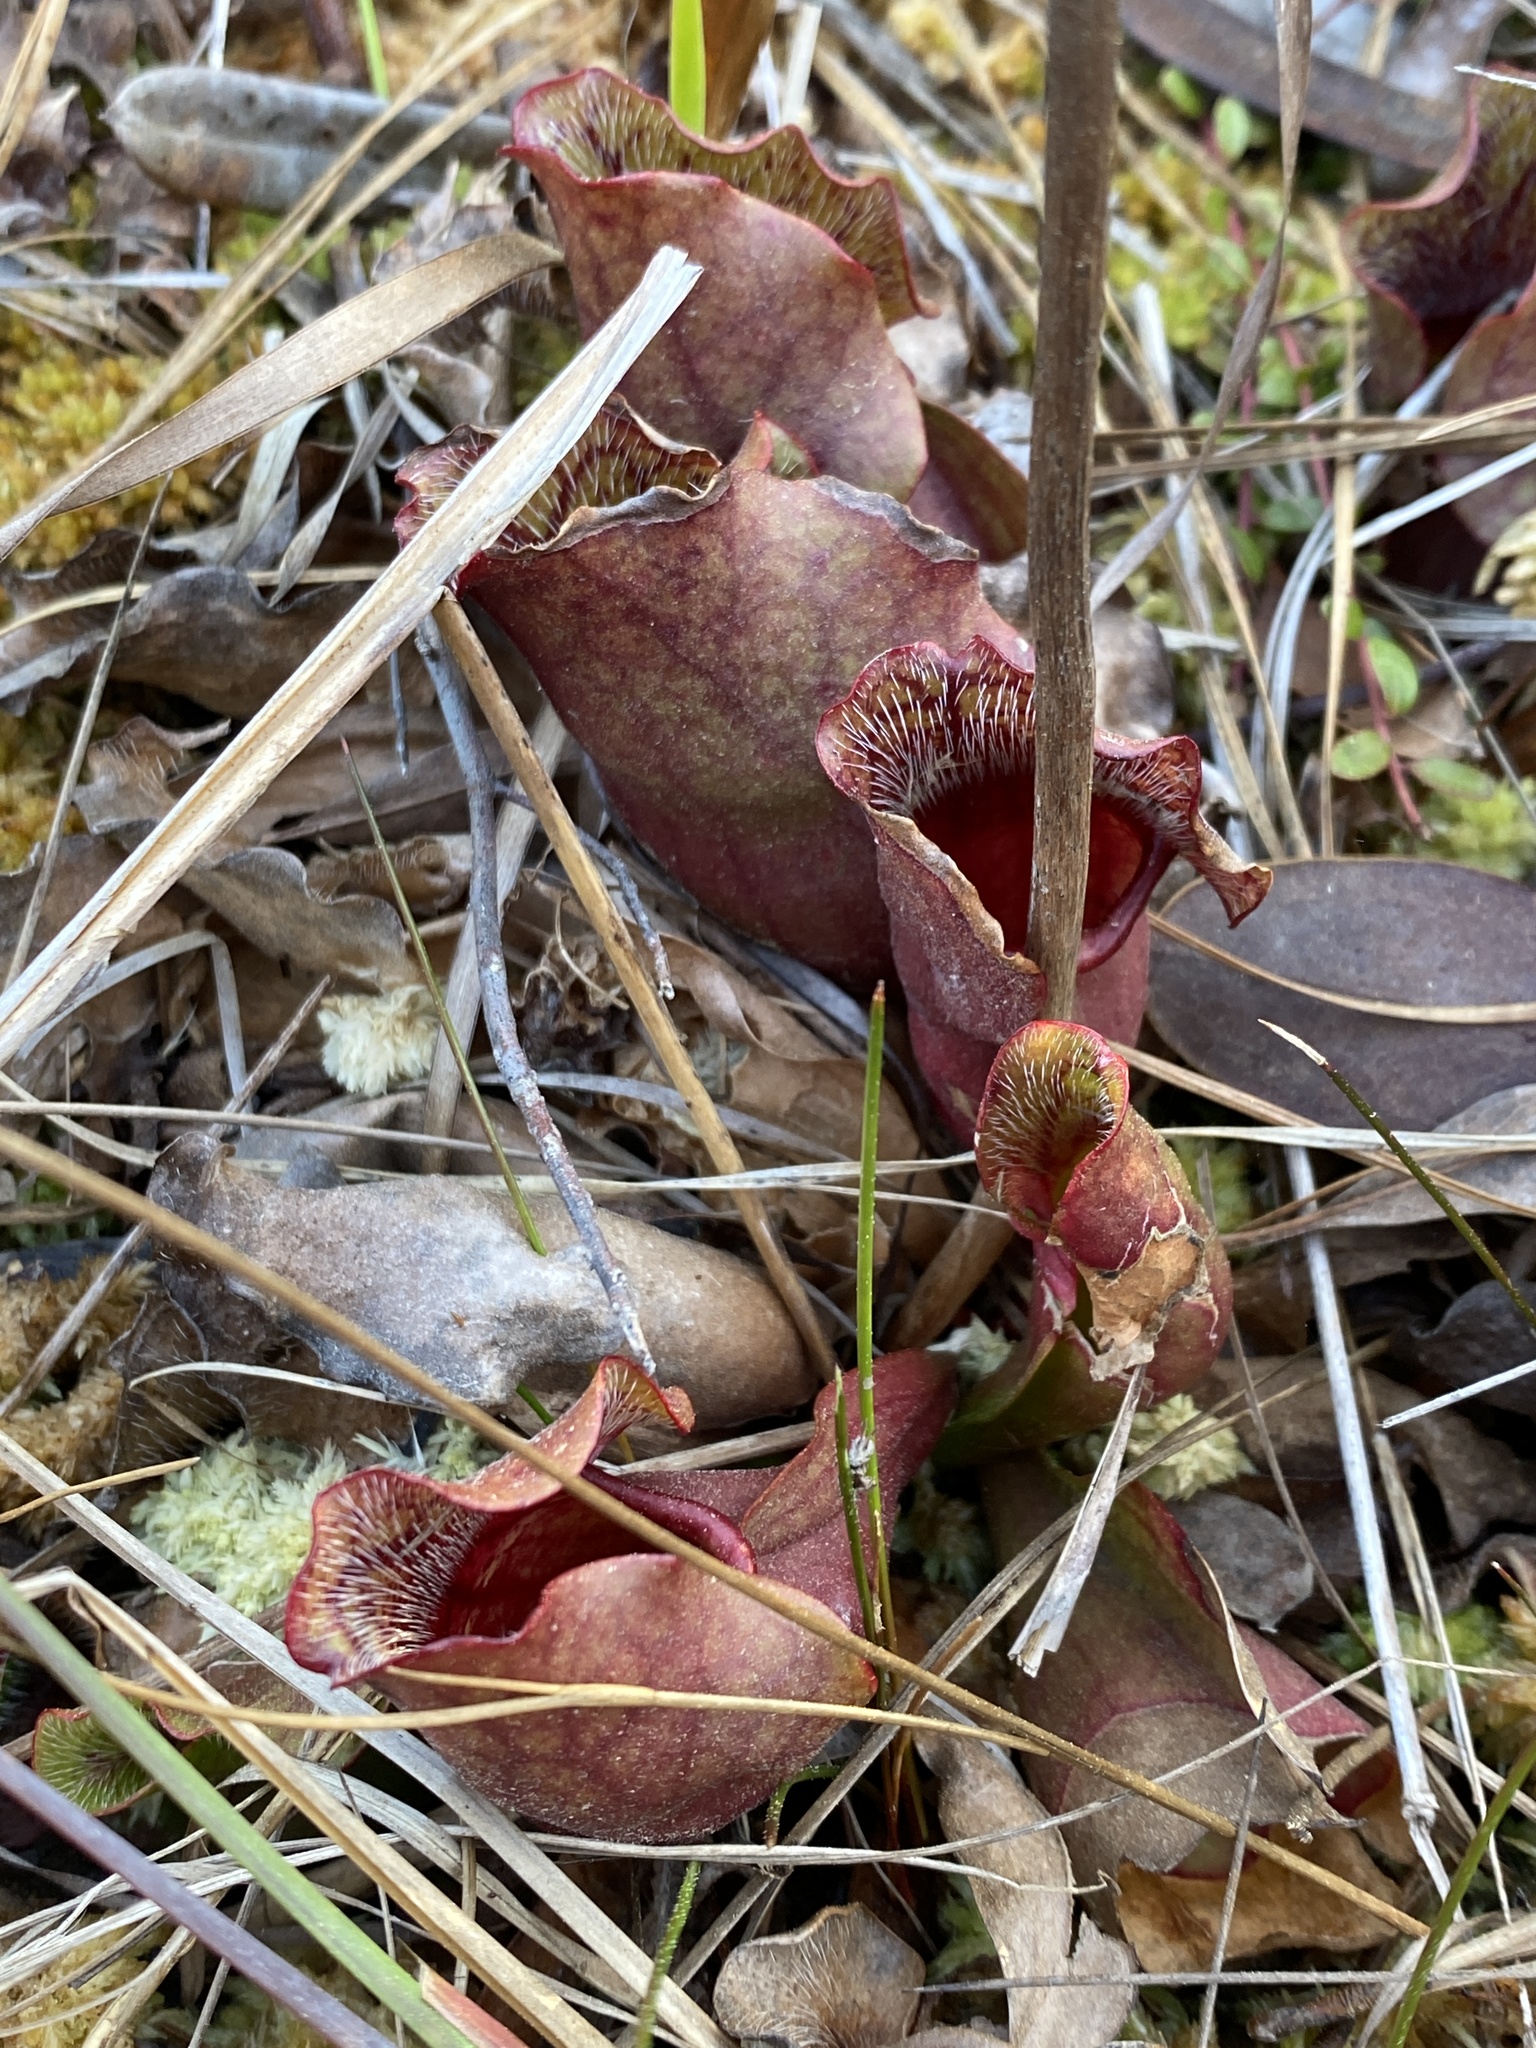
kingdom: Plantae
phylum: Tracheophyta
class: Magnoliopsida
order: Ericales
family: Sarraceniaceae
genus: Sarracenia
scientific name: Sarracenia purpurea
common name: Pitcherplant
